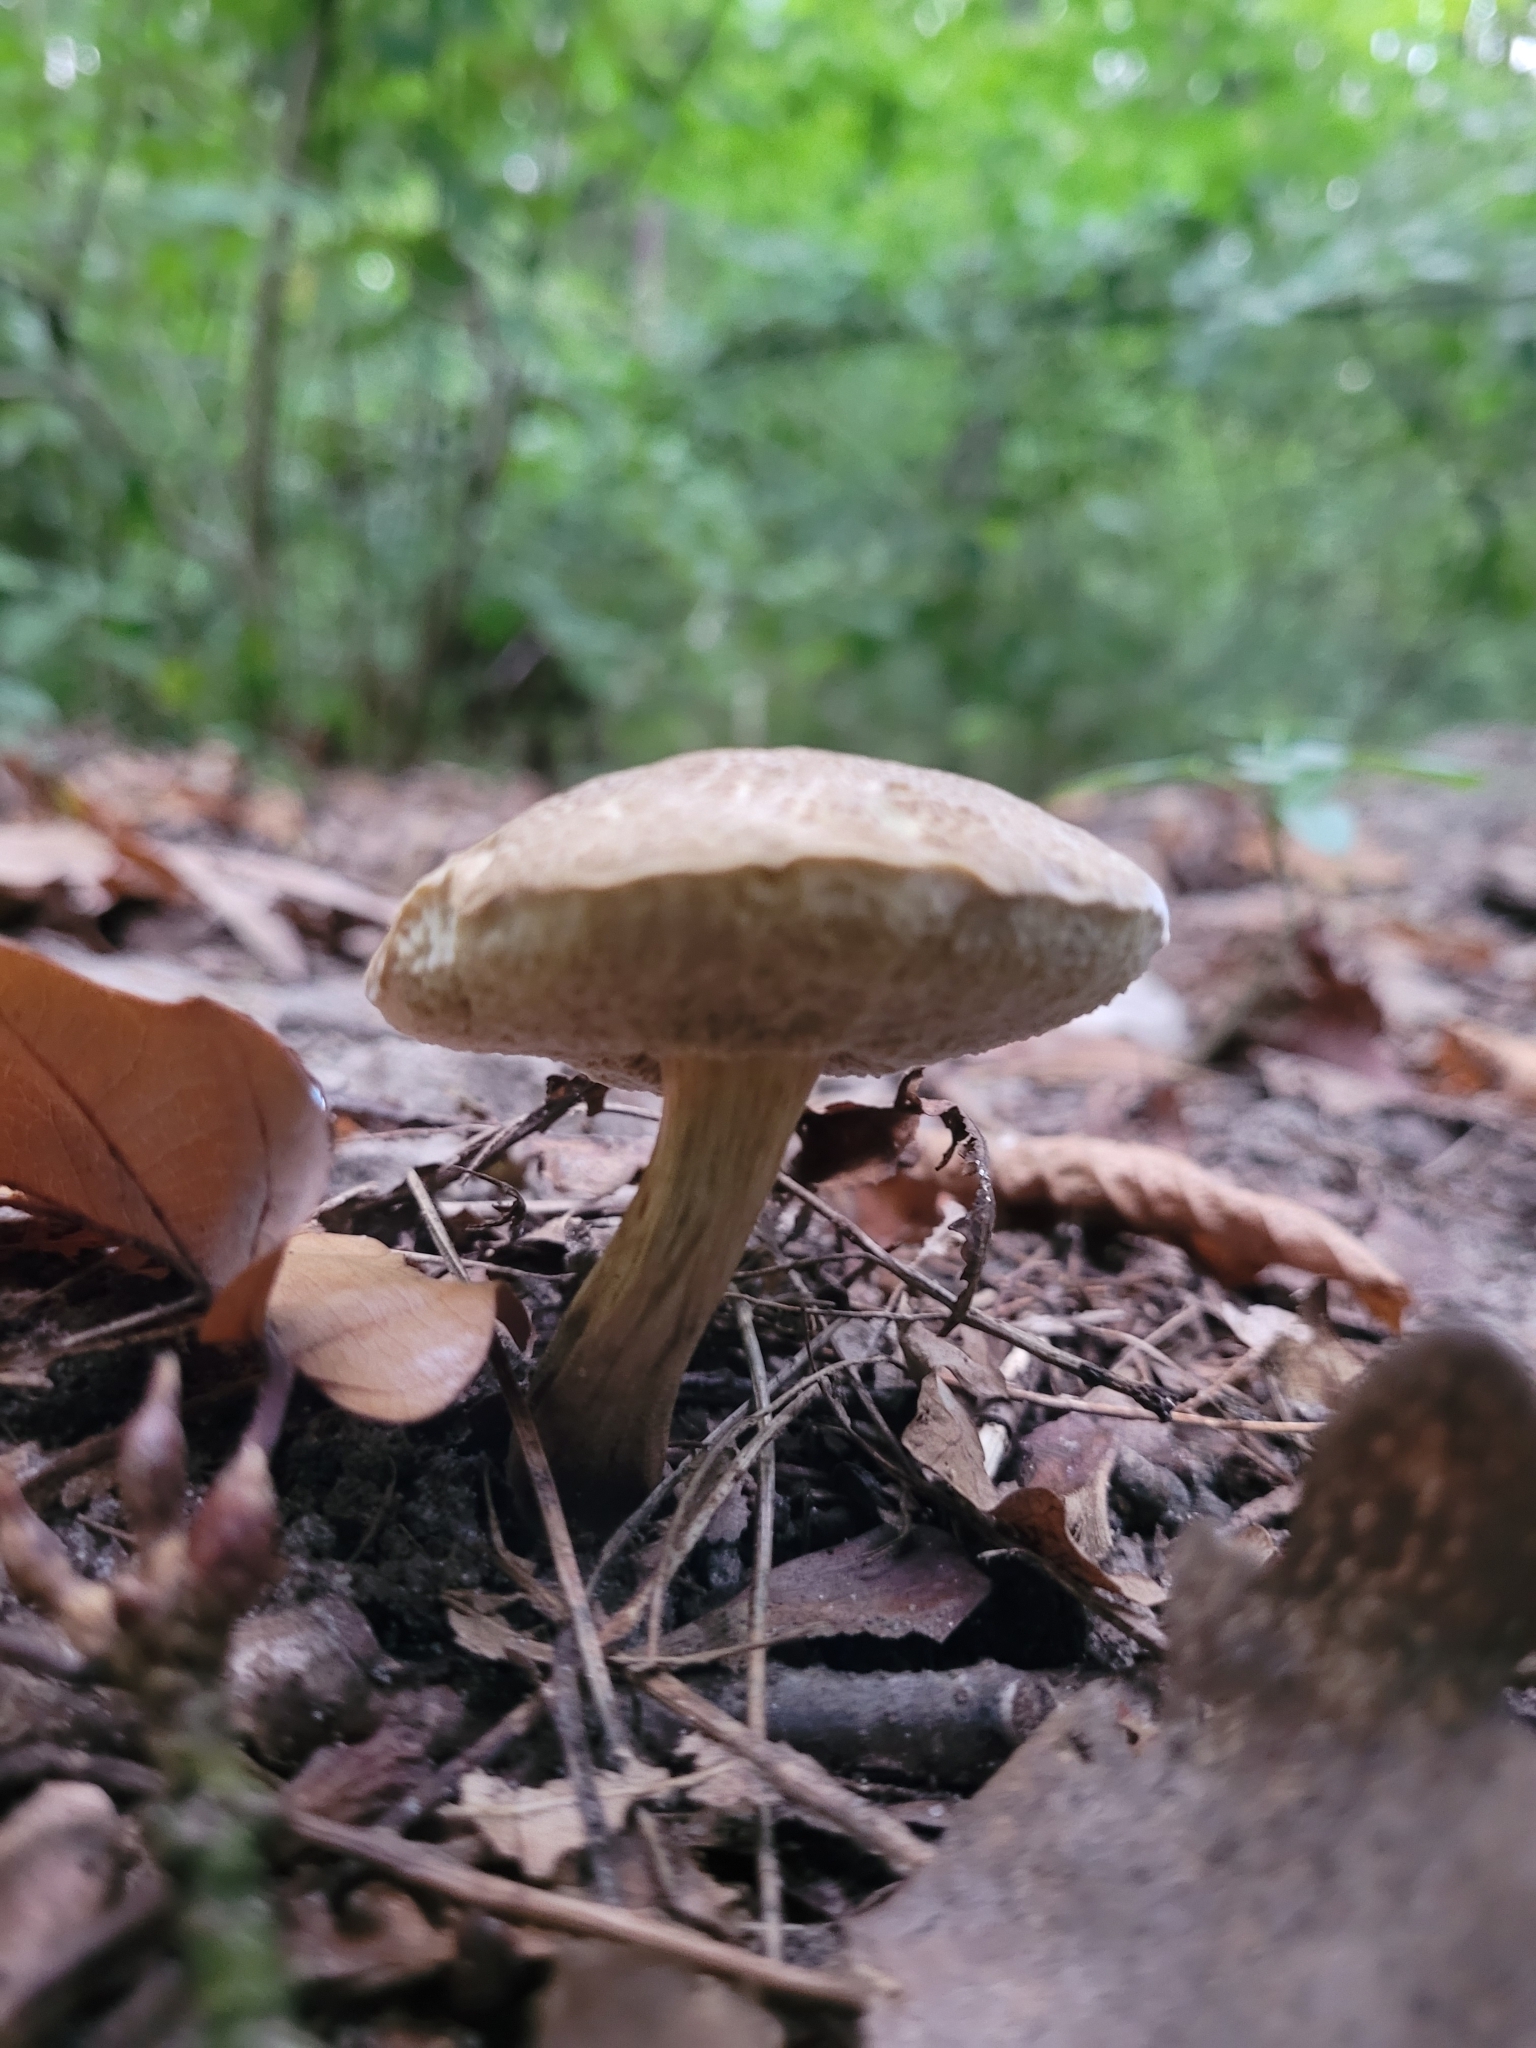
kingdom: Fungi
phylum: Basidiomycota
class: Agaricomycetes
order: Boletales
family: Boletaceae
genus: Xerocomellus
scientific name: Xerocomellus chrysenteron
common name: Red-cracking bolete
